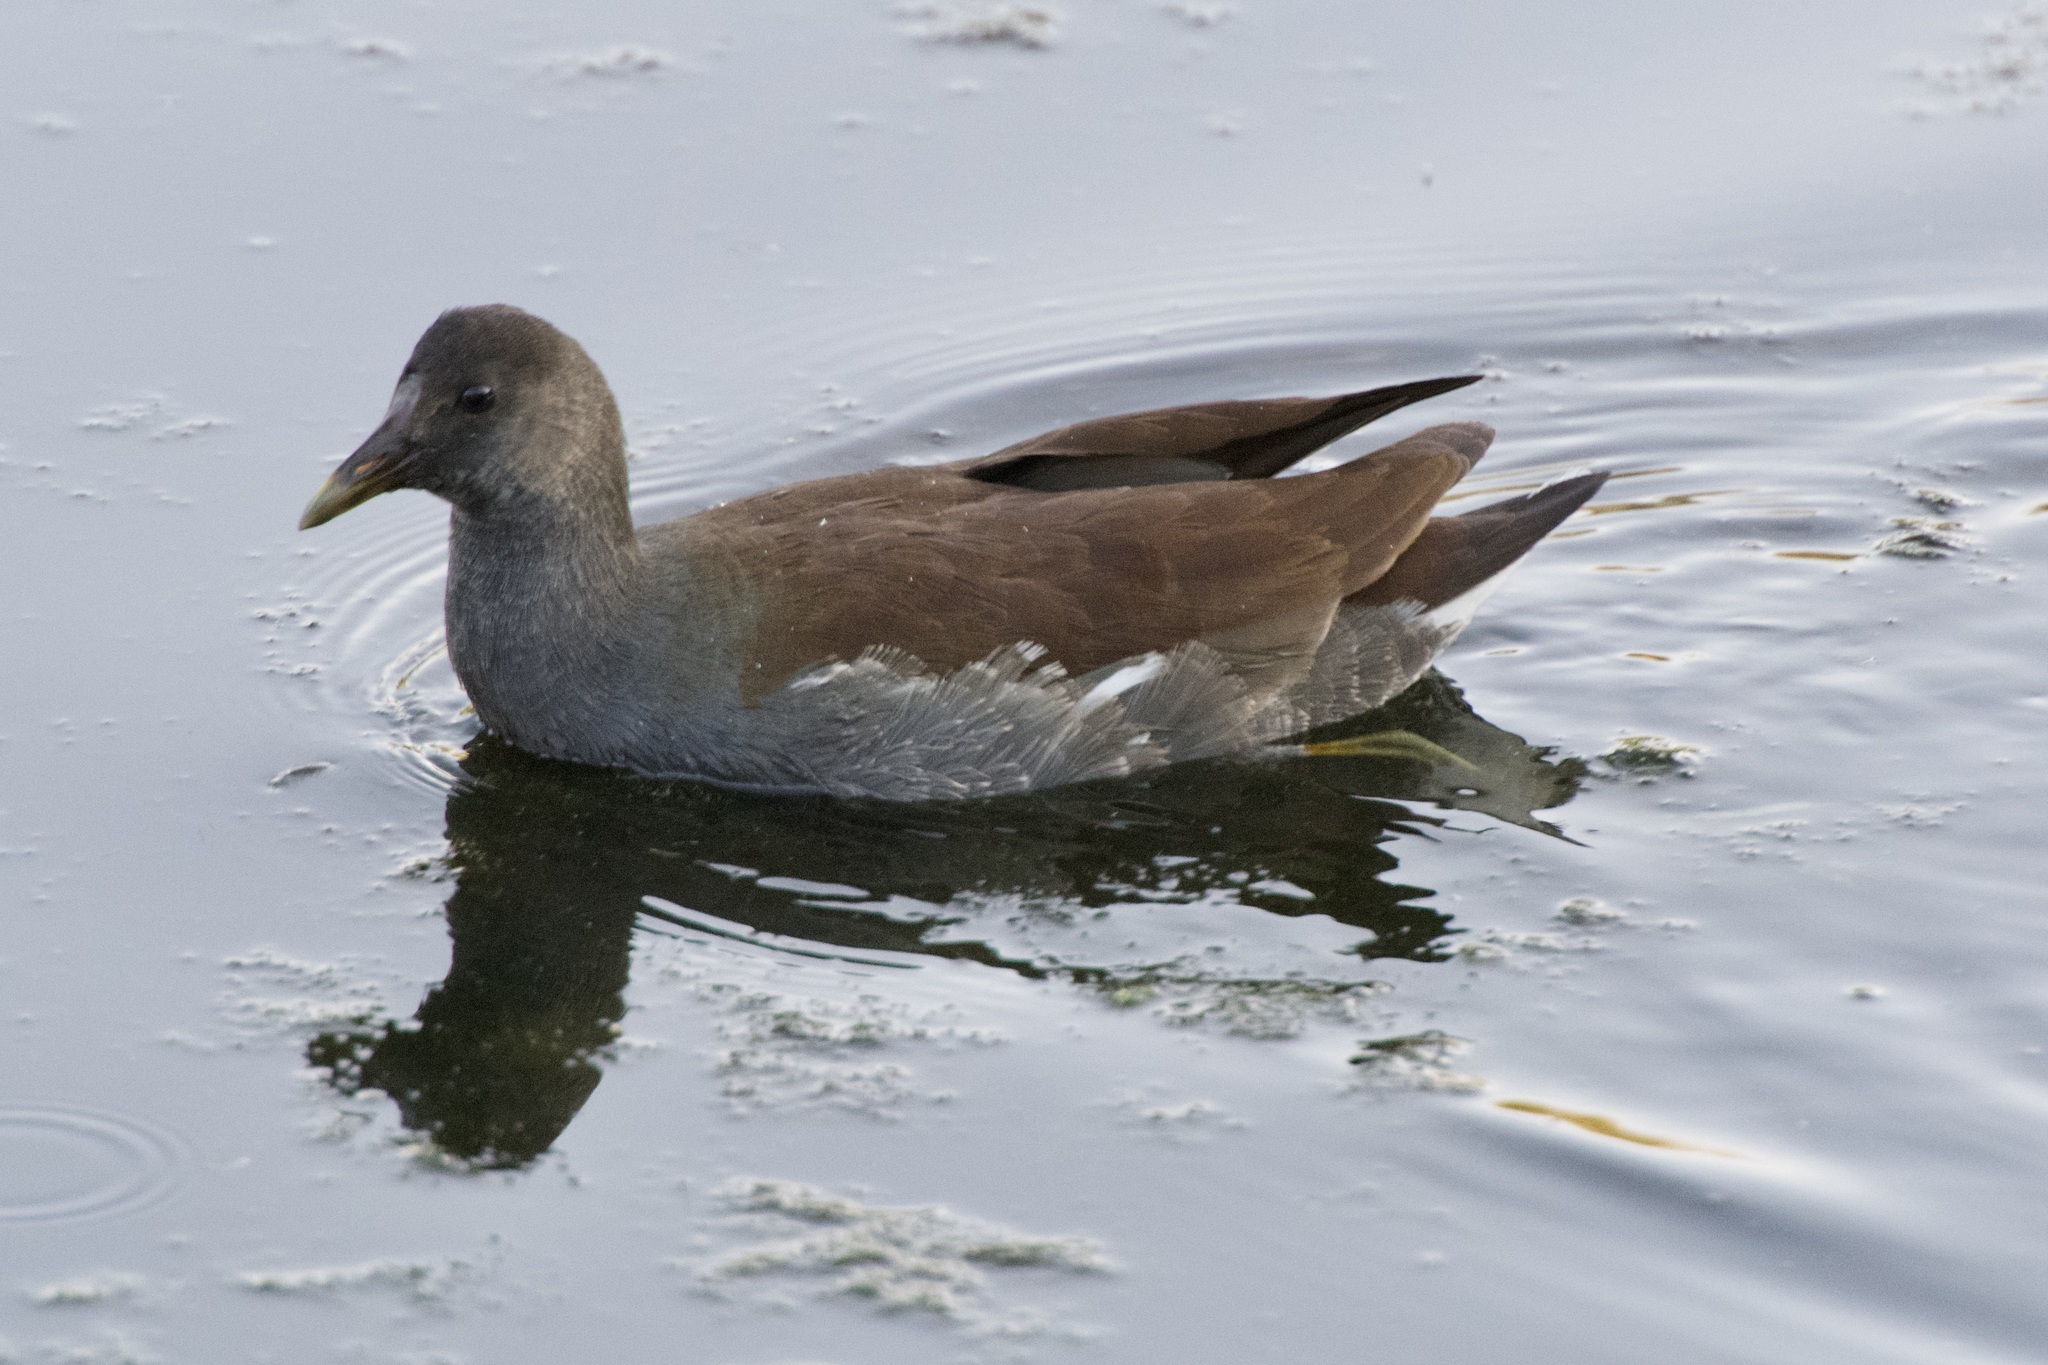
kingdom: Animalia
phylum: Chordata
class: Aves
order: Gruiformes
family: Rallidae
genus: Gallinula
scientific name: Gallinula chloropus
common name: Common moorhen
